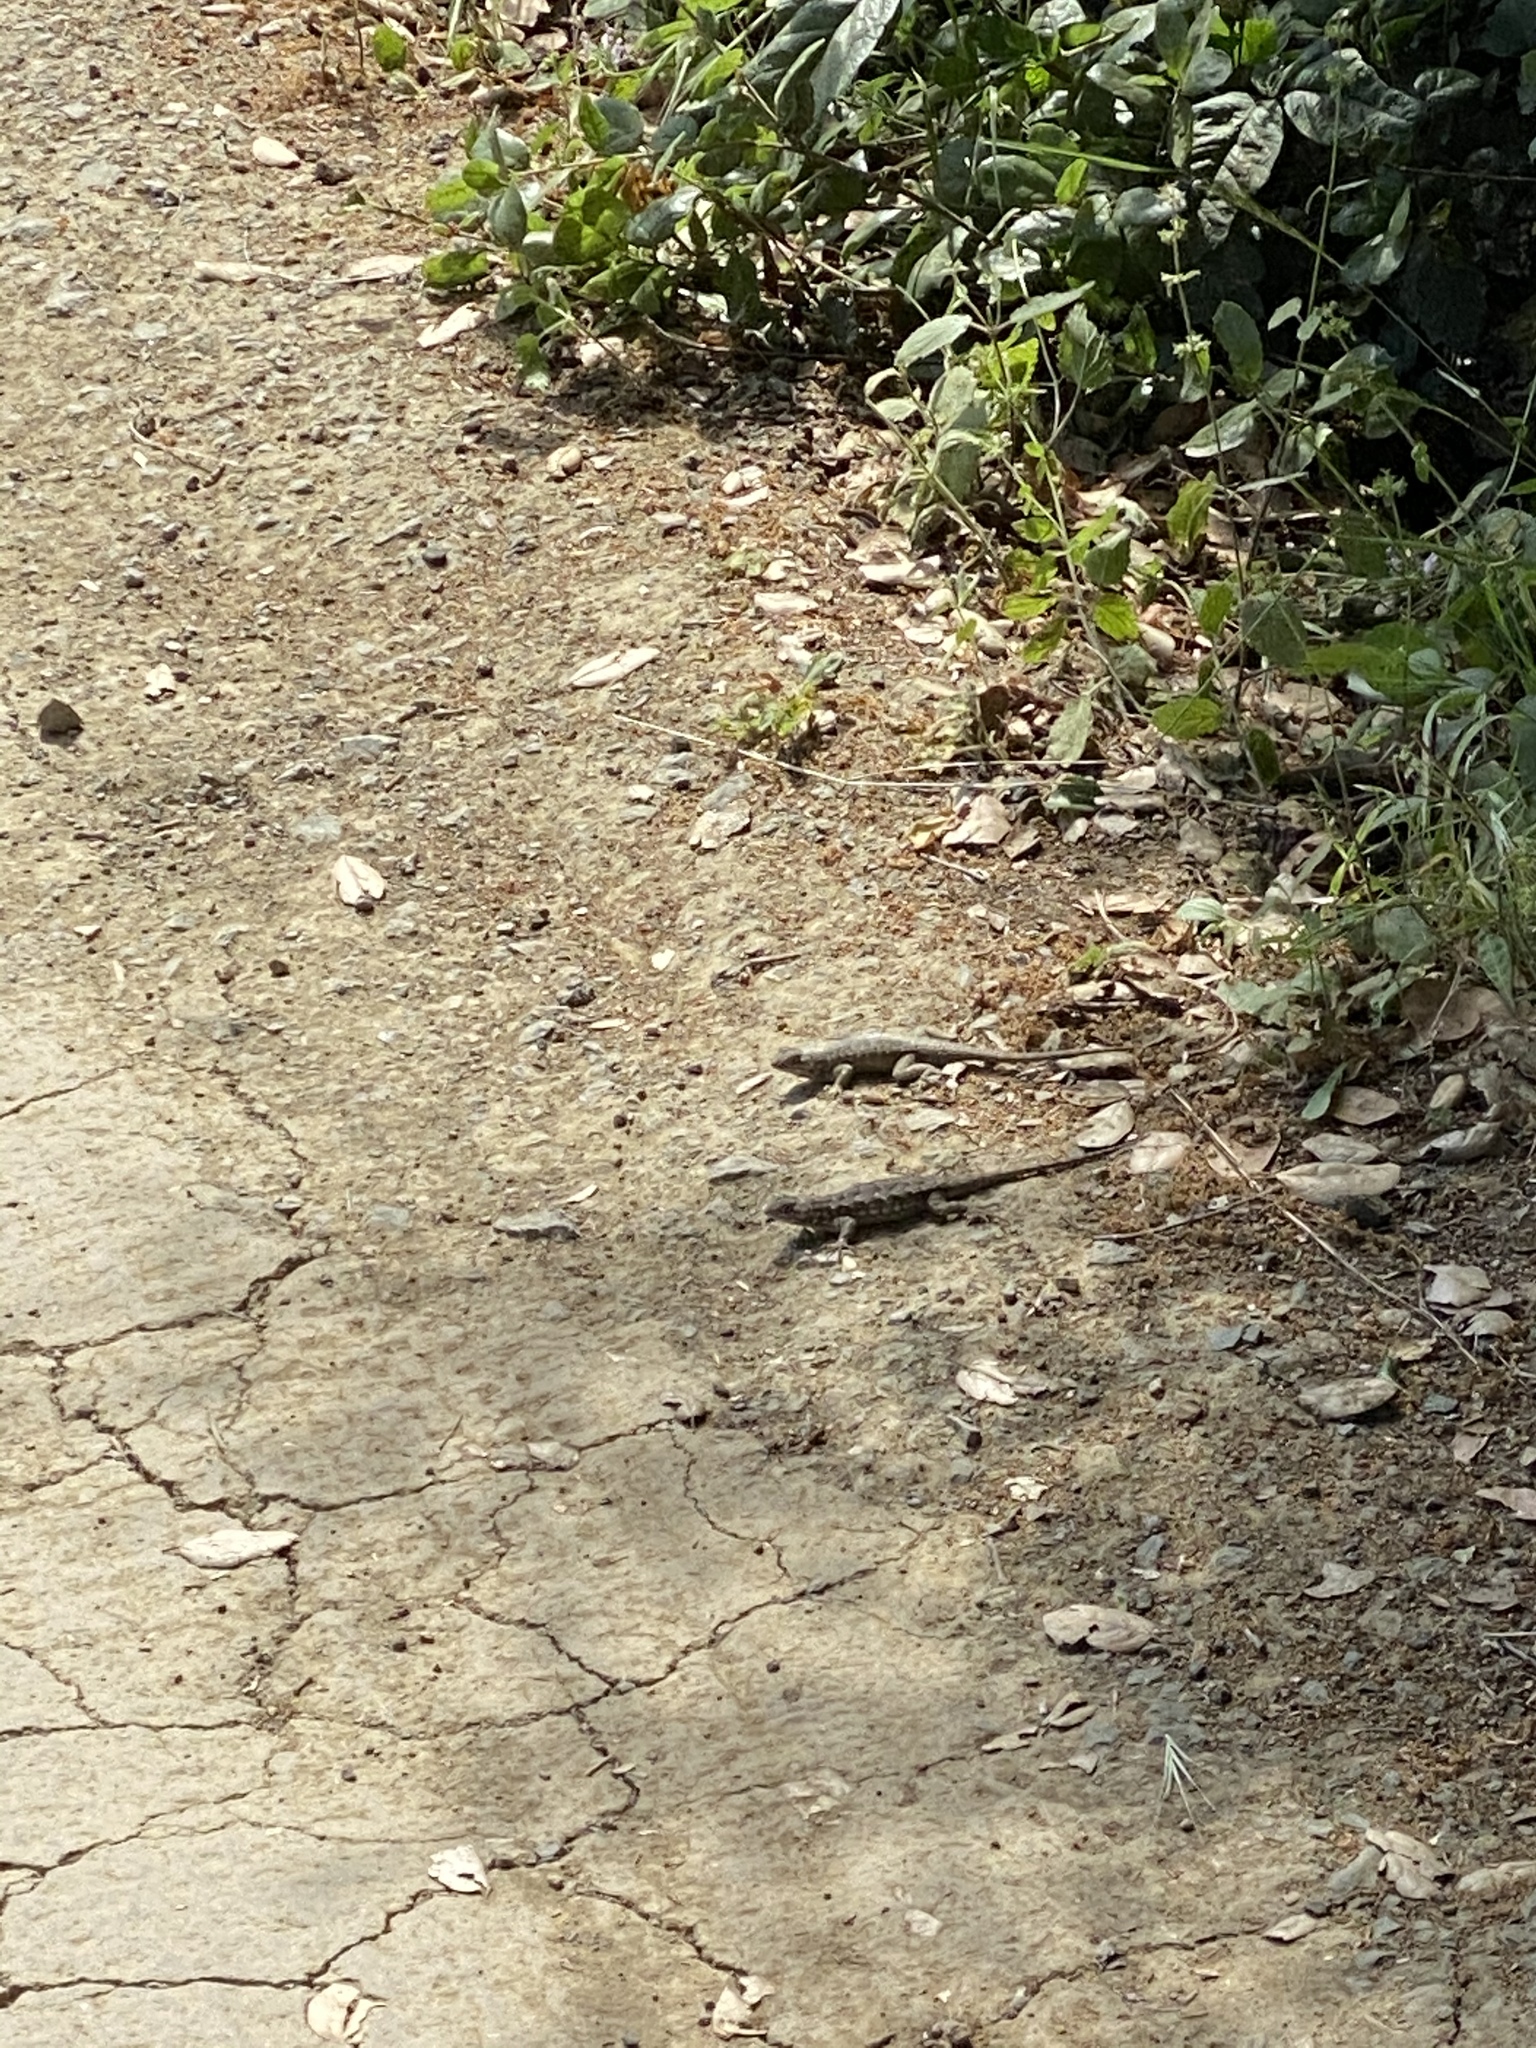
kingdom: Animalia
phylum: Chordata
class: Squamata
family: Phrynosomatidae
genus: Sceloporus
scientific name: Sceloporus occidentalis
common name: Western fence lizard
